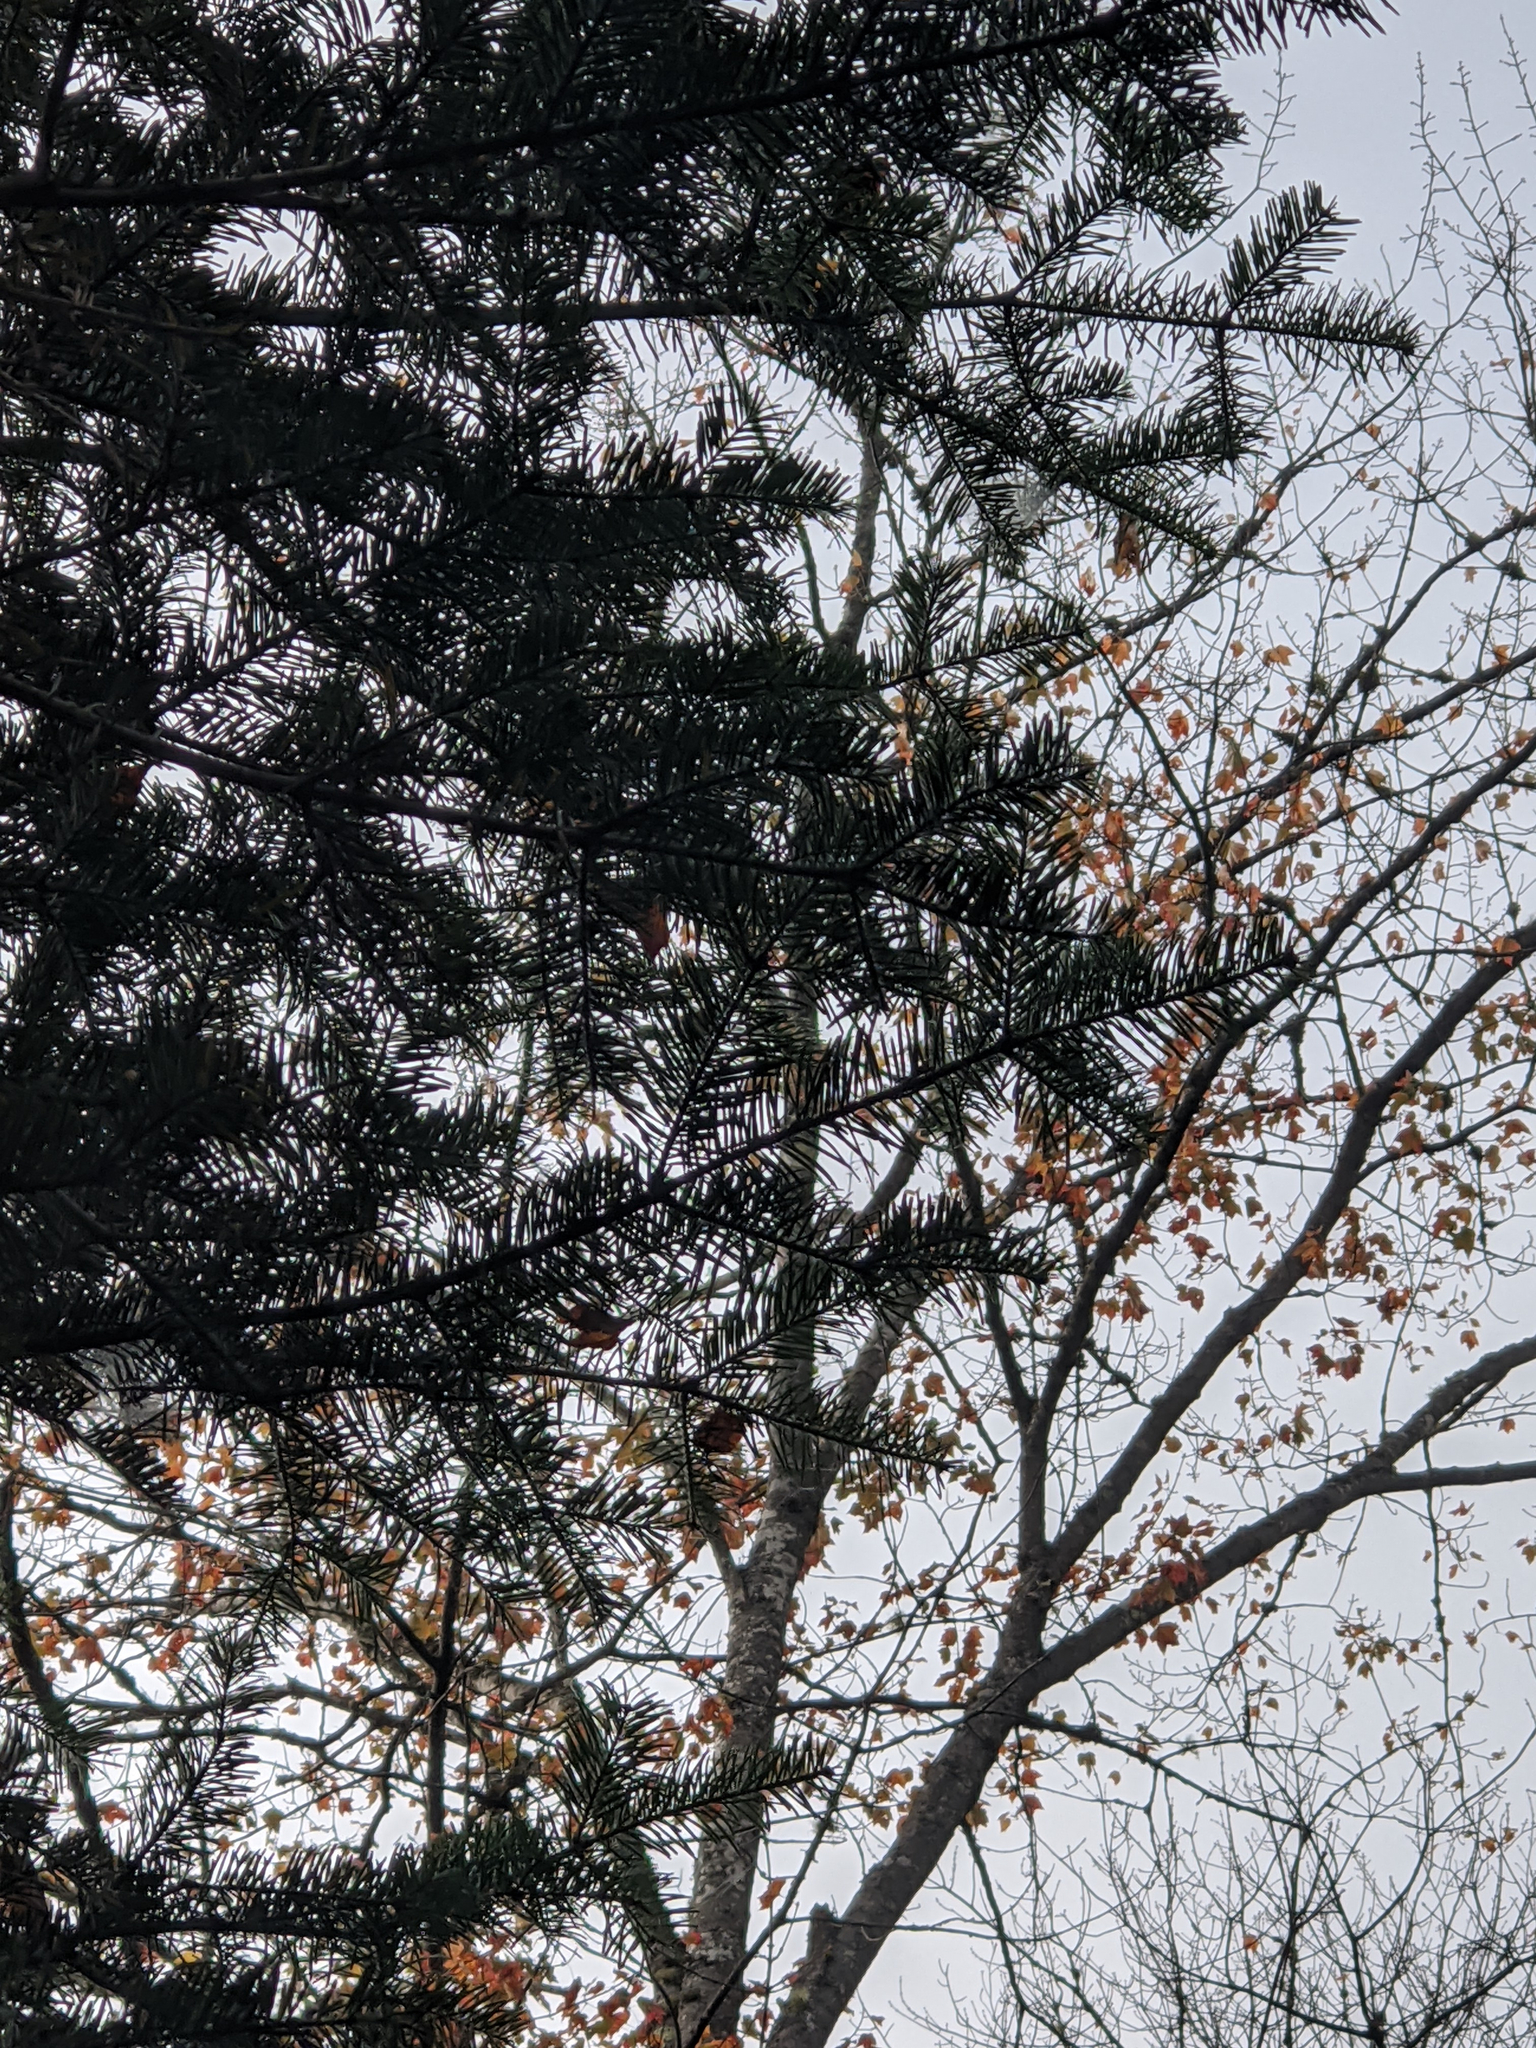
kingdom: Plantae
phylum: Tracheophyta
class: Pinopsida
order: Pinales
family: Pinaceae
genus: Abies
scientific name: Abies balsamea
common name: Balsam fir
